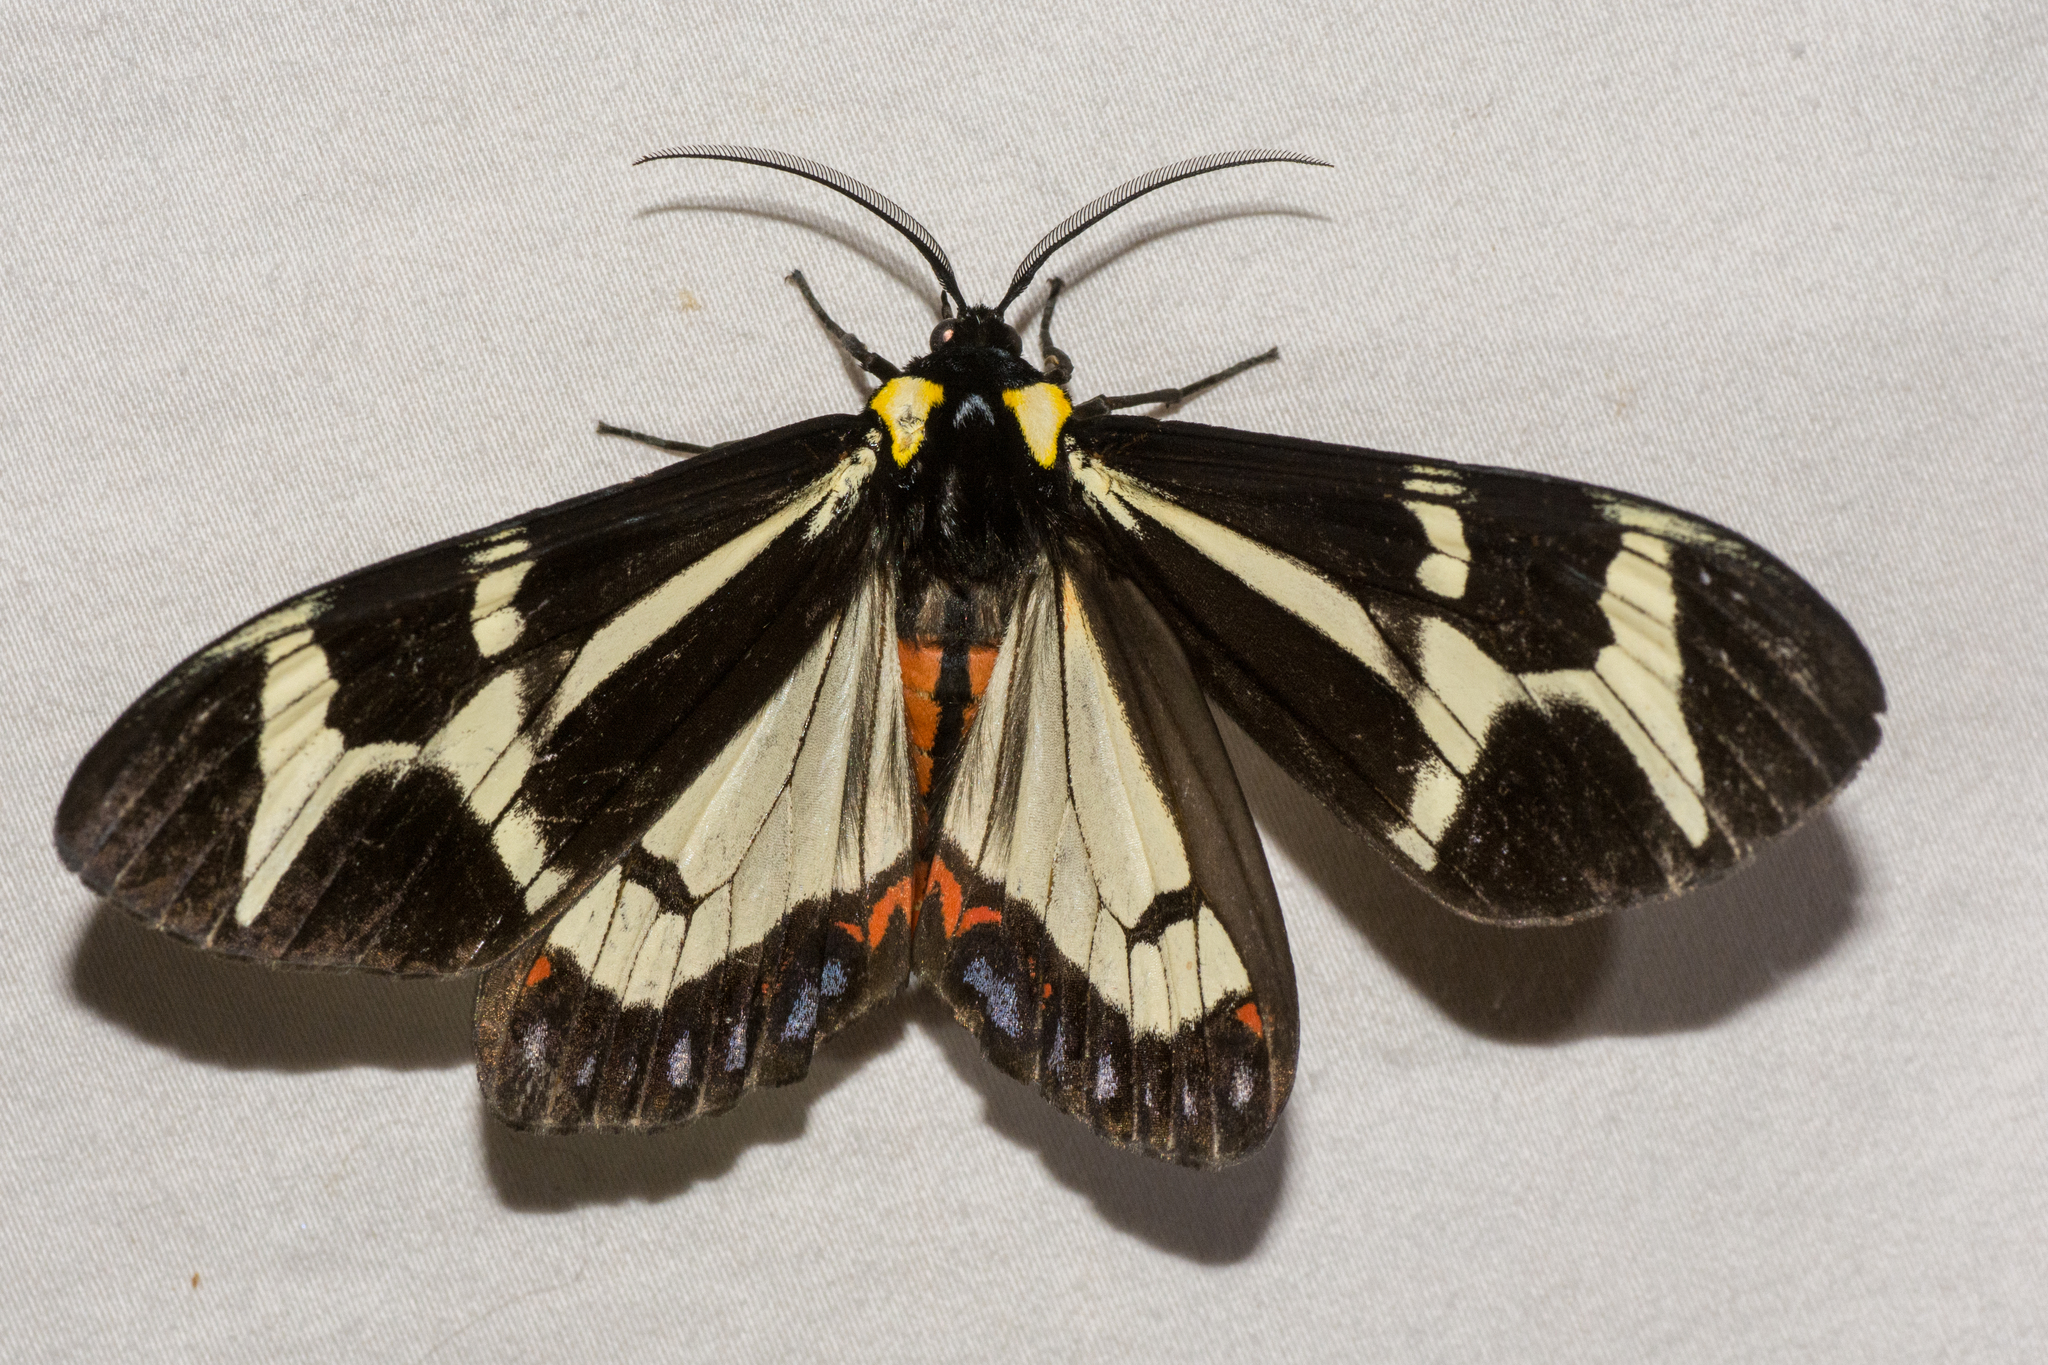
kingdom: Animalia
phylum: Arthropoda
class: Insecta
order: Lepidoptera
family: Erebidae
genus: Dysschema
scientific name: Dysschema howardi
